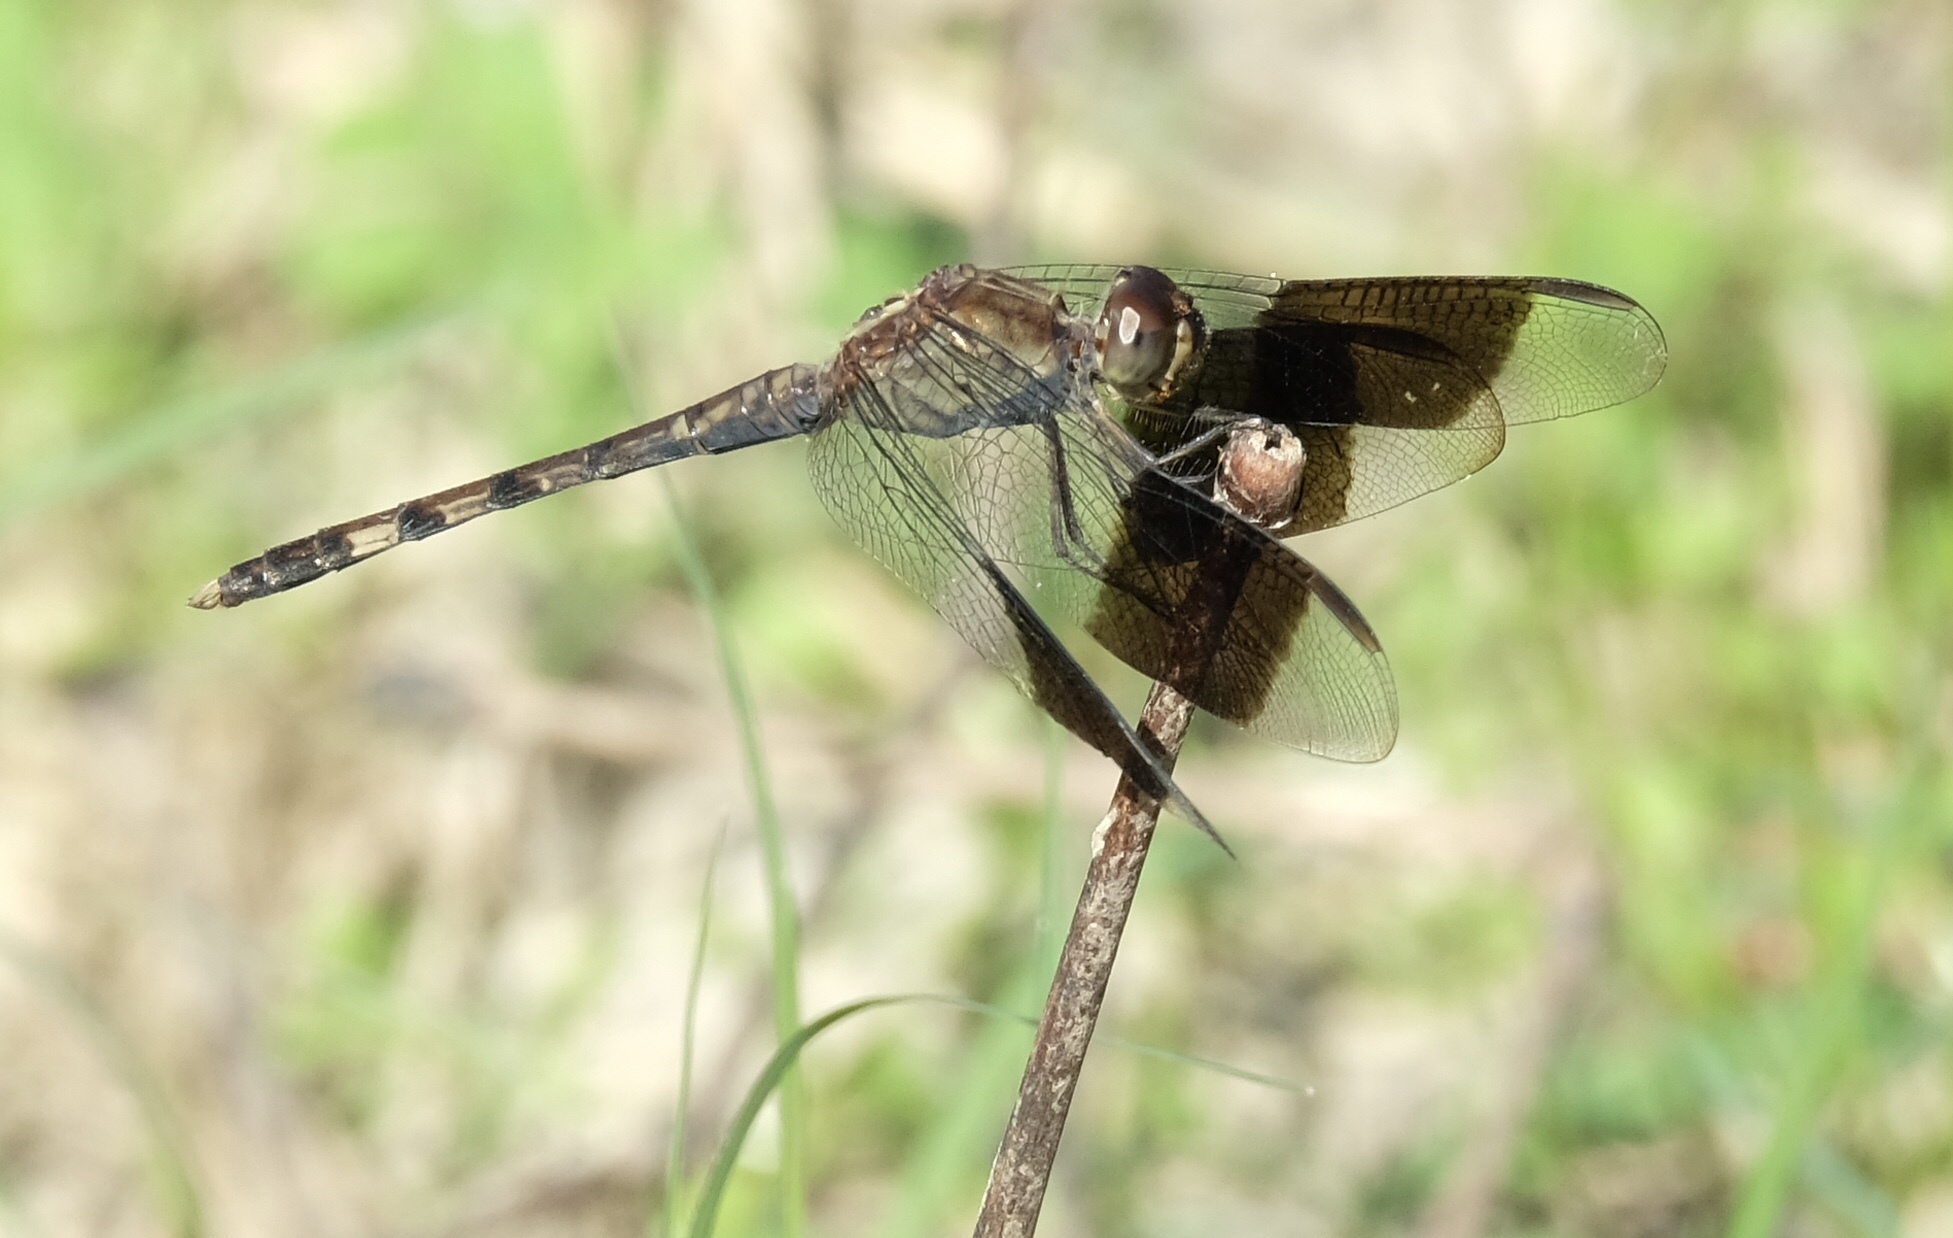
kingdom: Animalia
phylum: Arthropoda
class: Insecta
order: Odonata
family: Libellulidae
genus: Erythrodiplax
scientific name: Erythrodiplax umbrata
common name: Band-winged dragonlet
